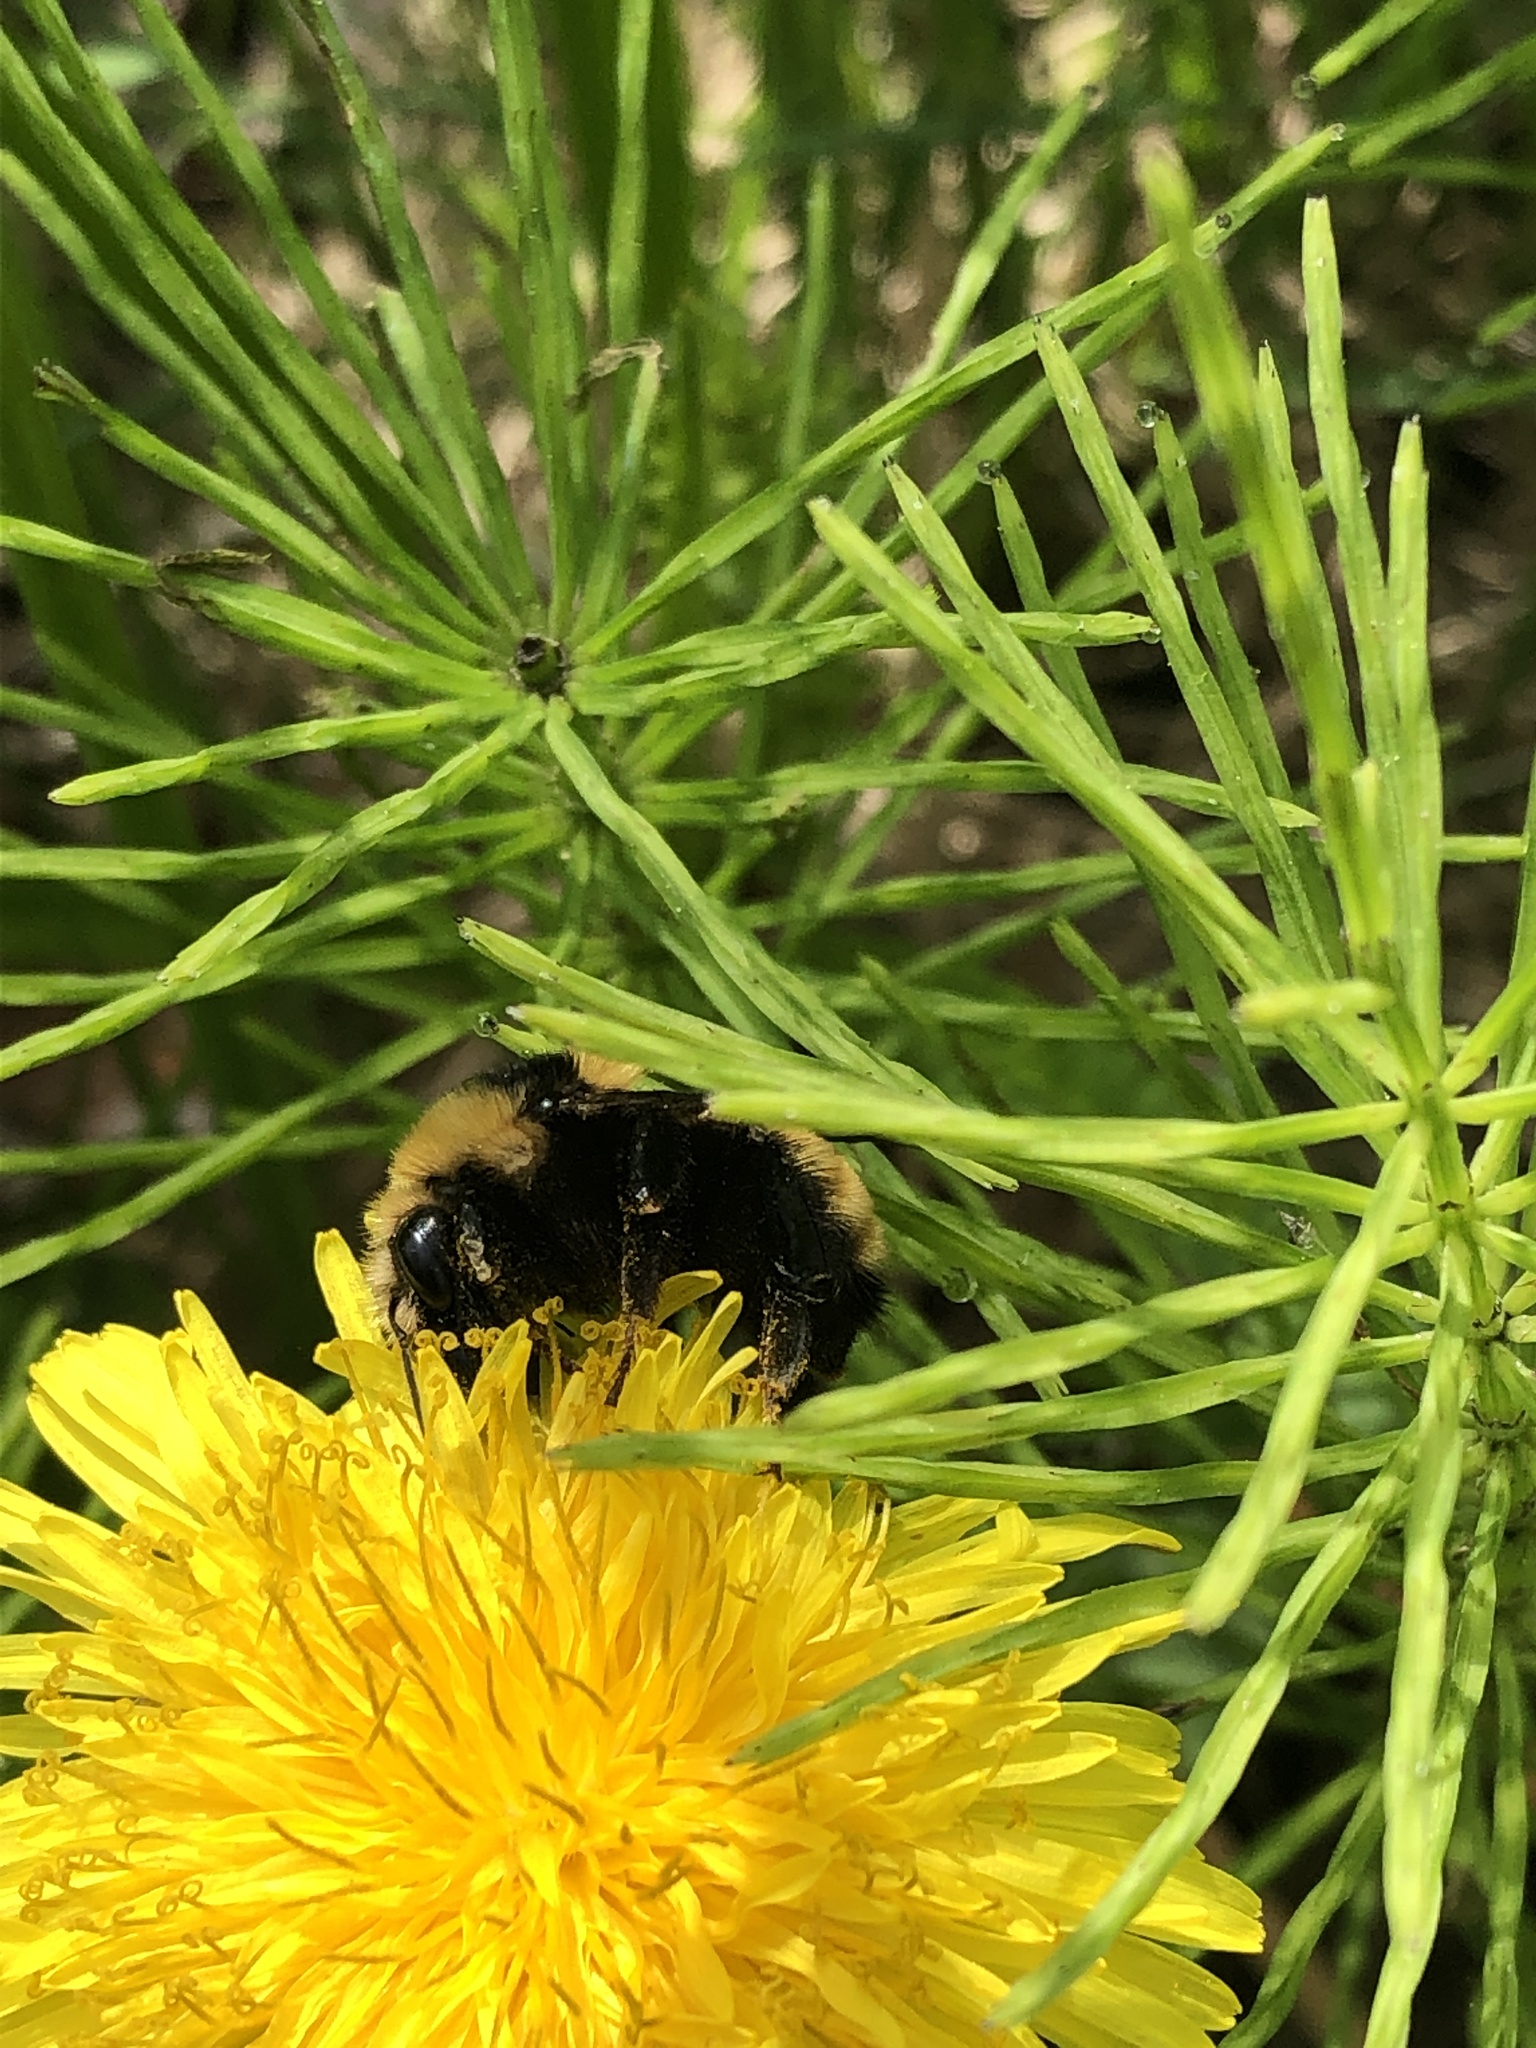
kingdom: Animalia
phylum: Arthropoda
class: Insecta
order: Hymenoptera
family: Apidae
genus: Bombus
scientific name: Bombus borealis
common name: Northern amber bumble bee
